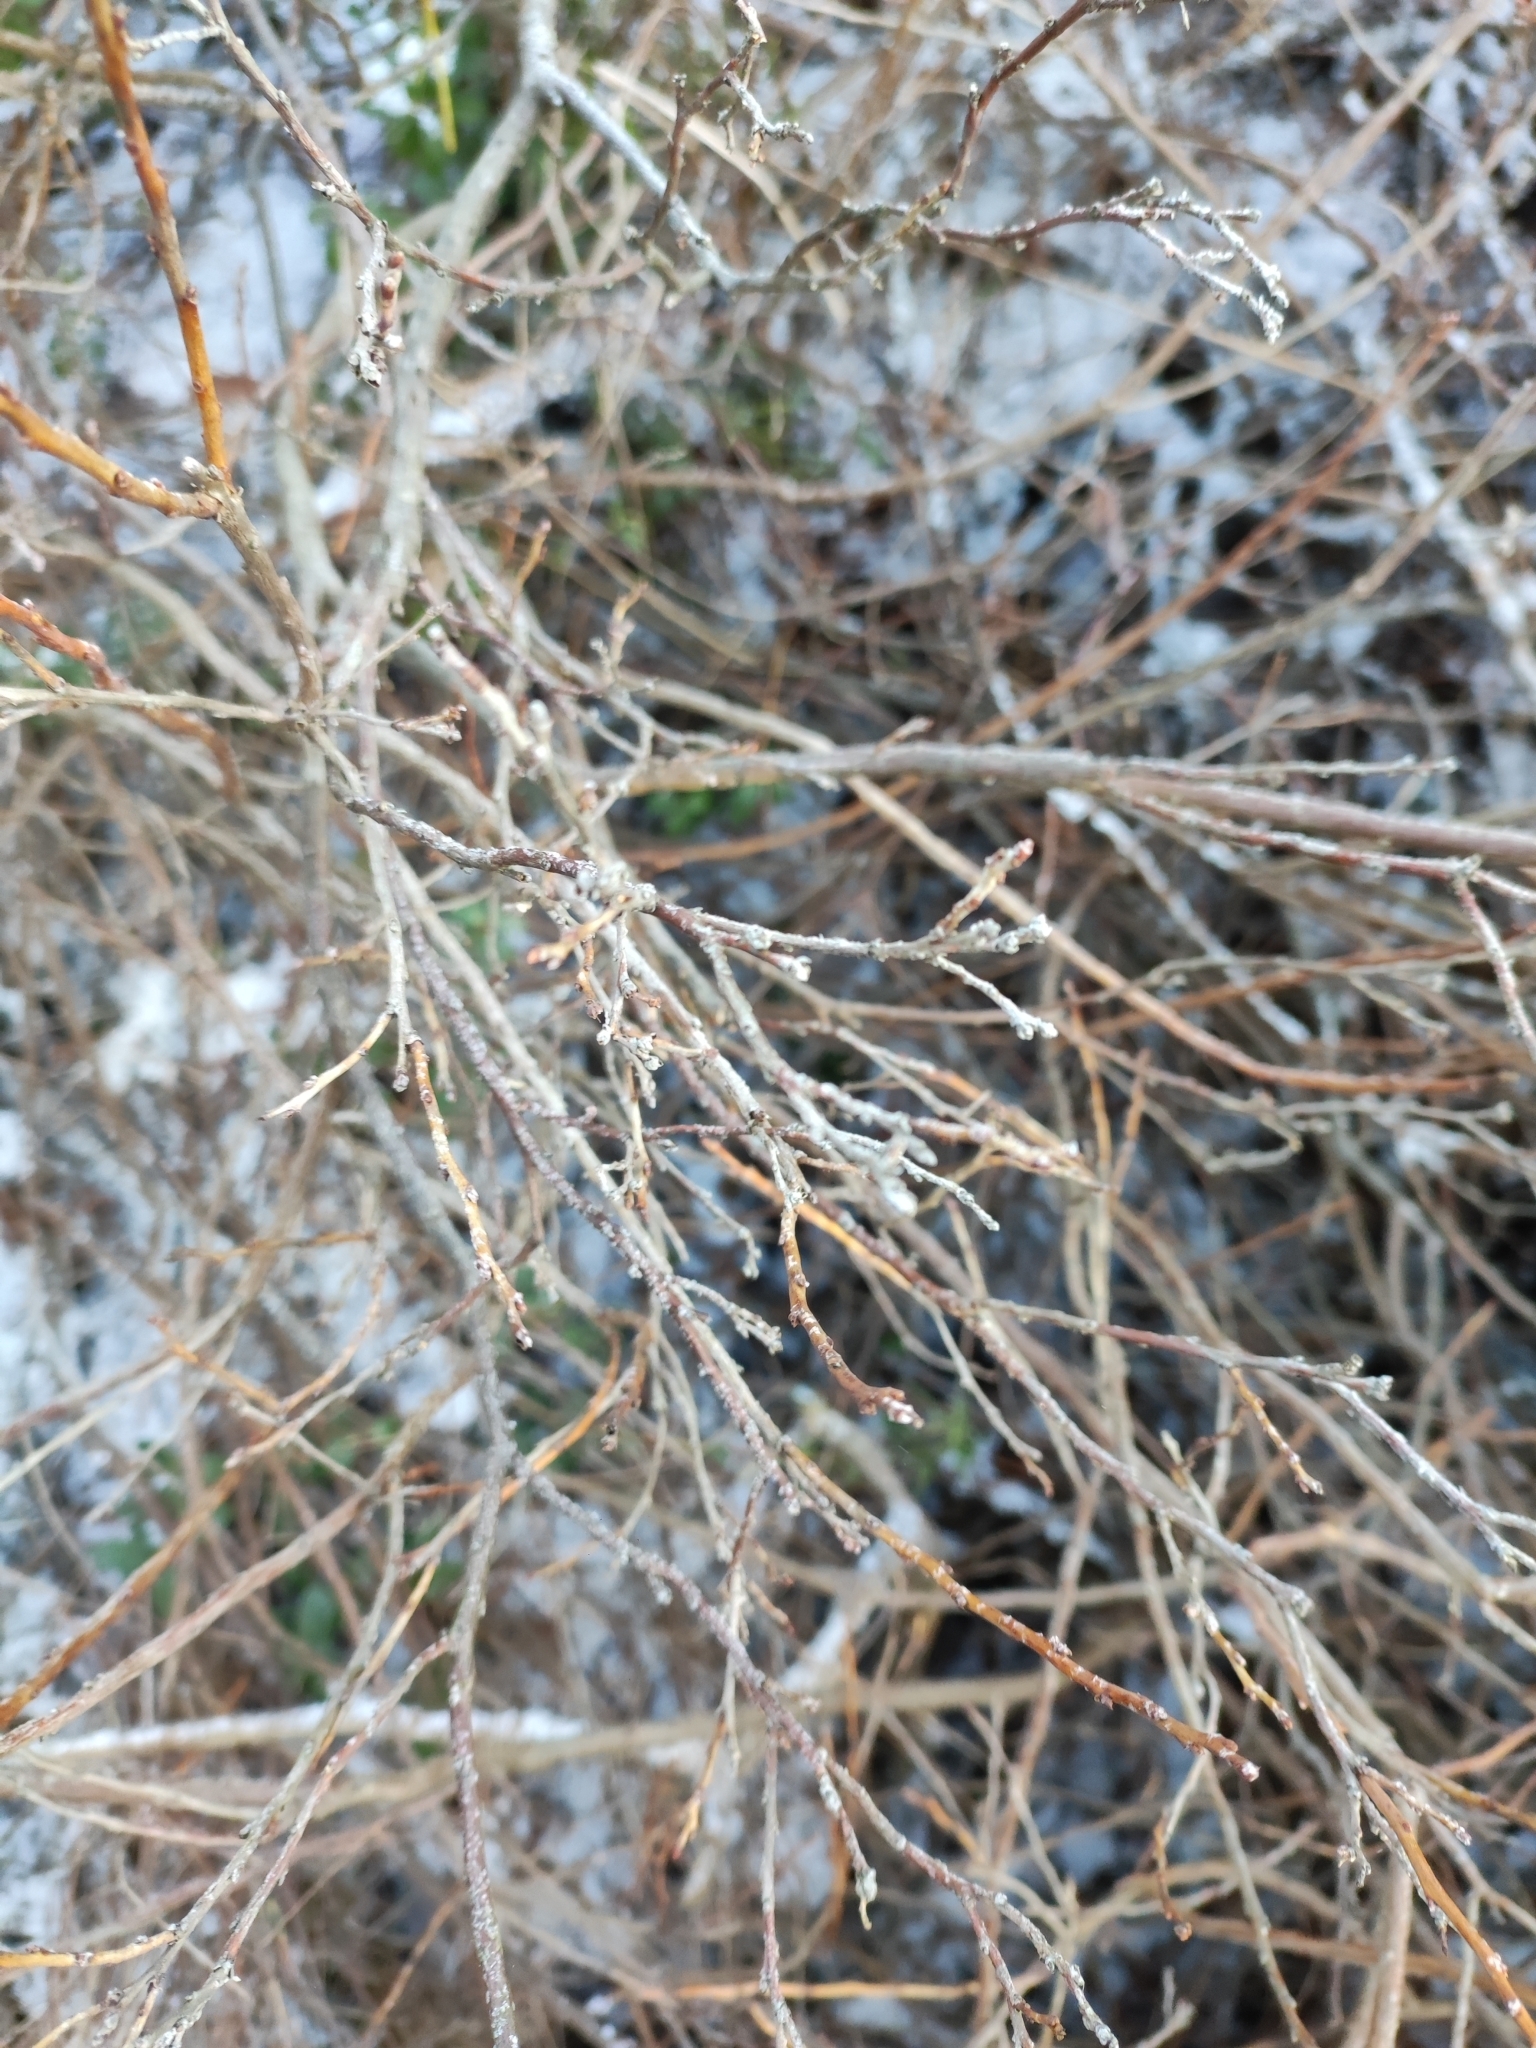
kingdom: Plantae
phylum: Tracheophyta
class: Magnoliopsida
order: Ericales
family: Ericaceae
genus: Vaccinium
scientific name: Vaccinium uliginosum
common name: Bog bilberry
